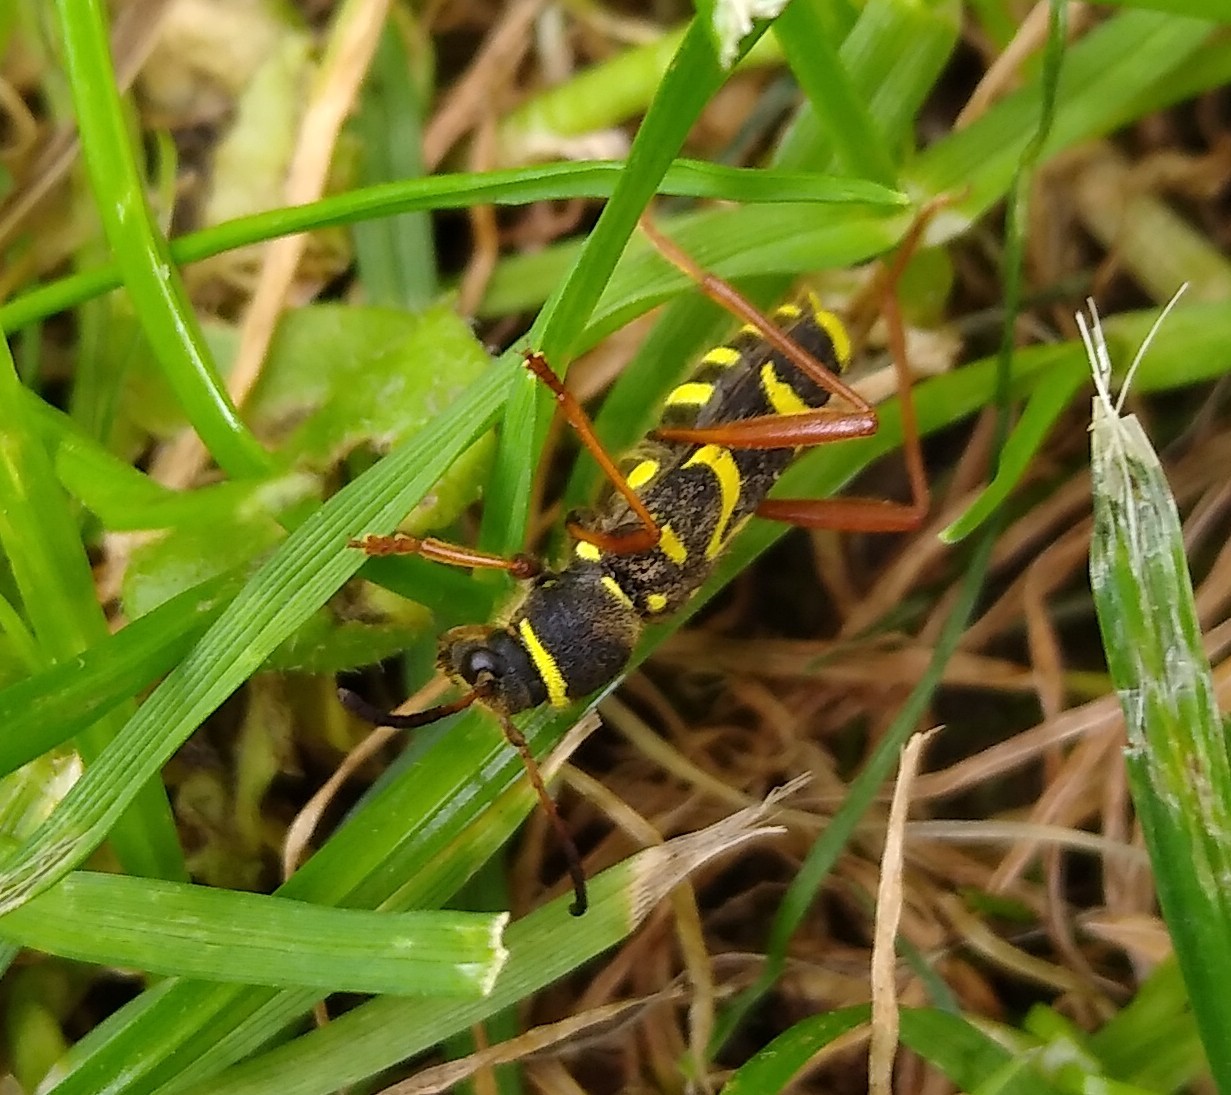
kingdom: Animalia
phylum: Arthropoda
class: Insecta
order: Coleoptera
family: Cerambycidae
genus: Clytus
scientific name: Clytus arietis
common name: Wasp beetle
